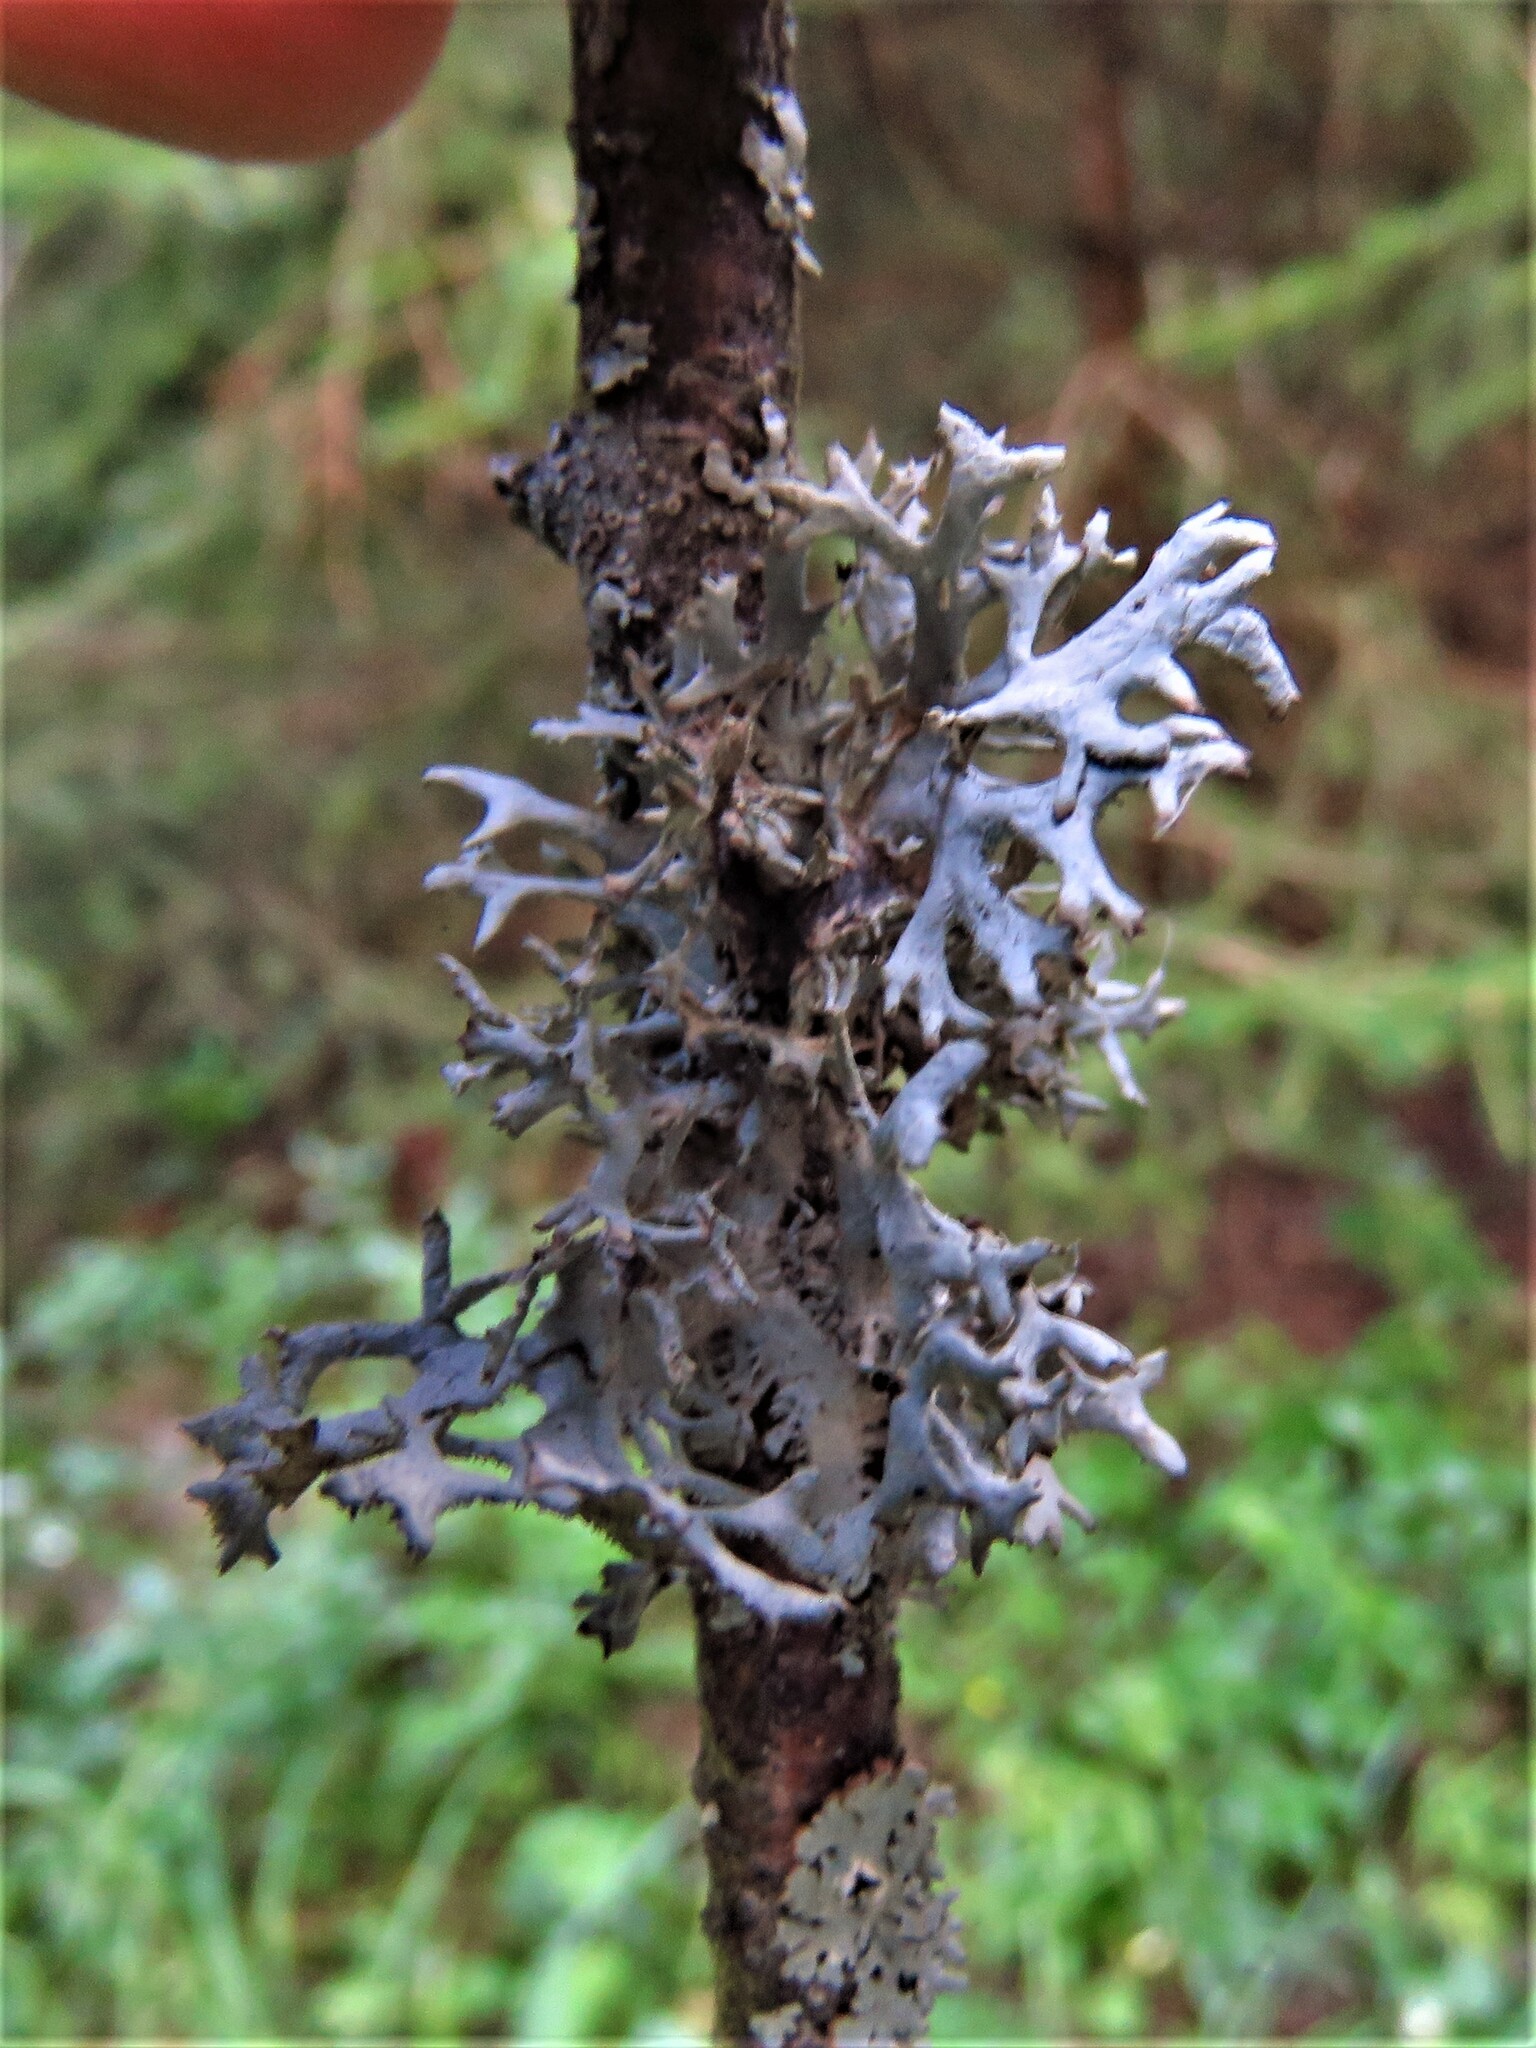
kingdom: Fungi
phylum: Ascomycota
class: Lecanoromycetes
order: Lecanorales
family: Parmeliaceae
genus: Pseudevernia
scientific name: Pseudevernia furfuracea
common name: Tree moss
